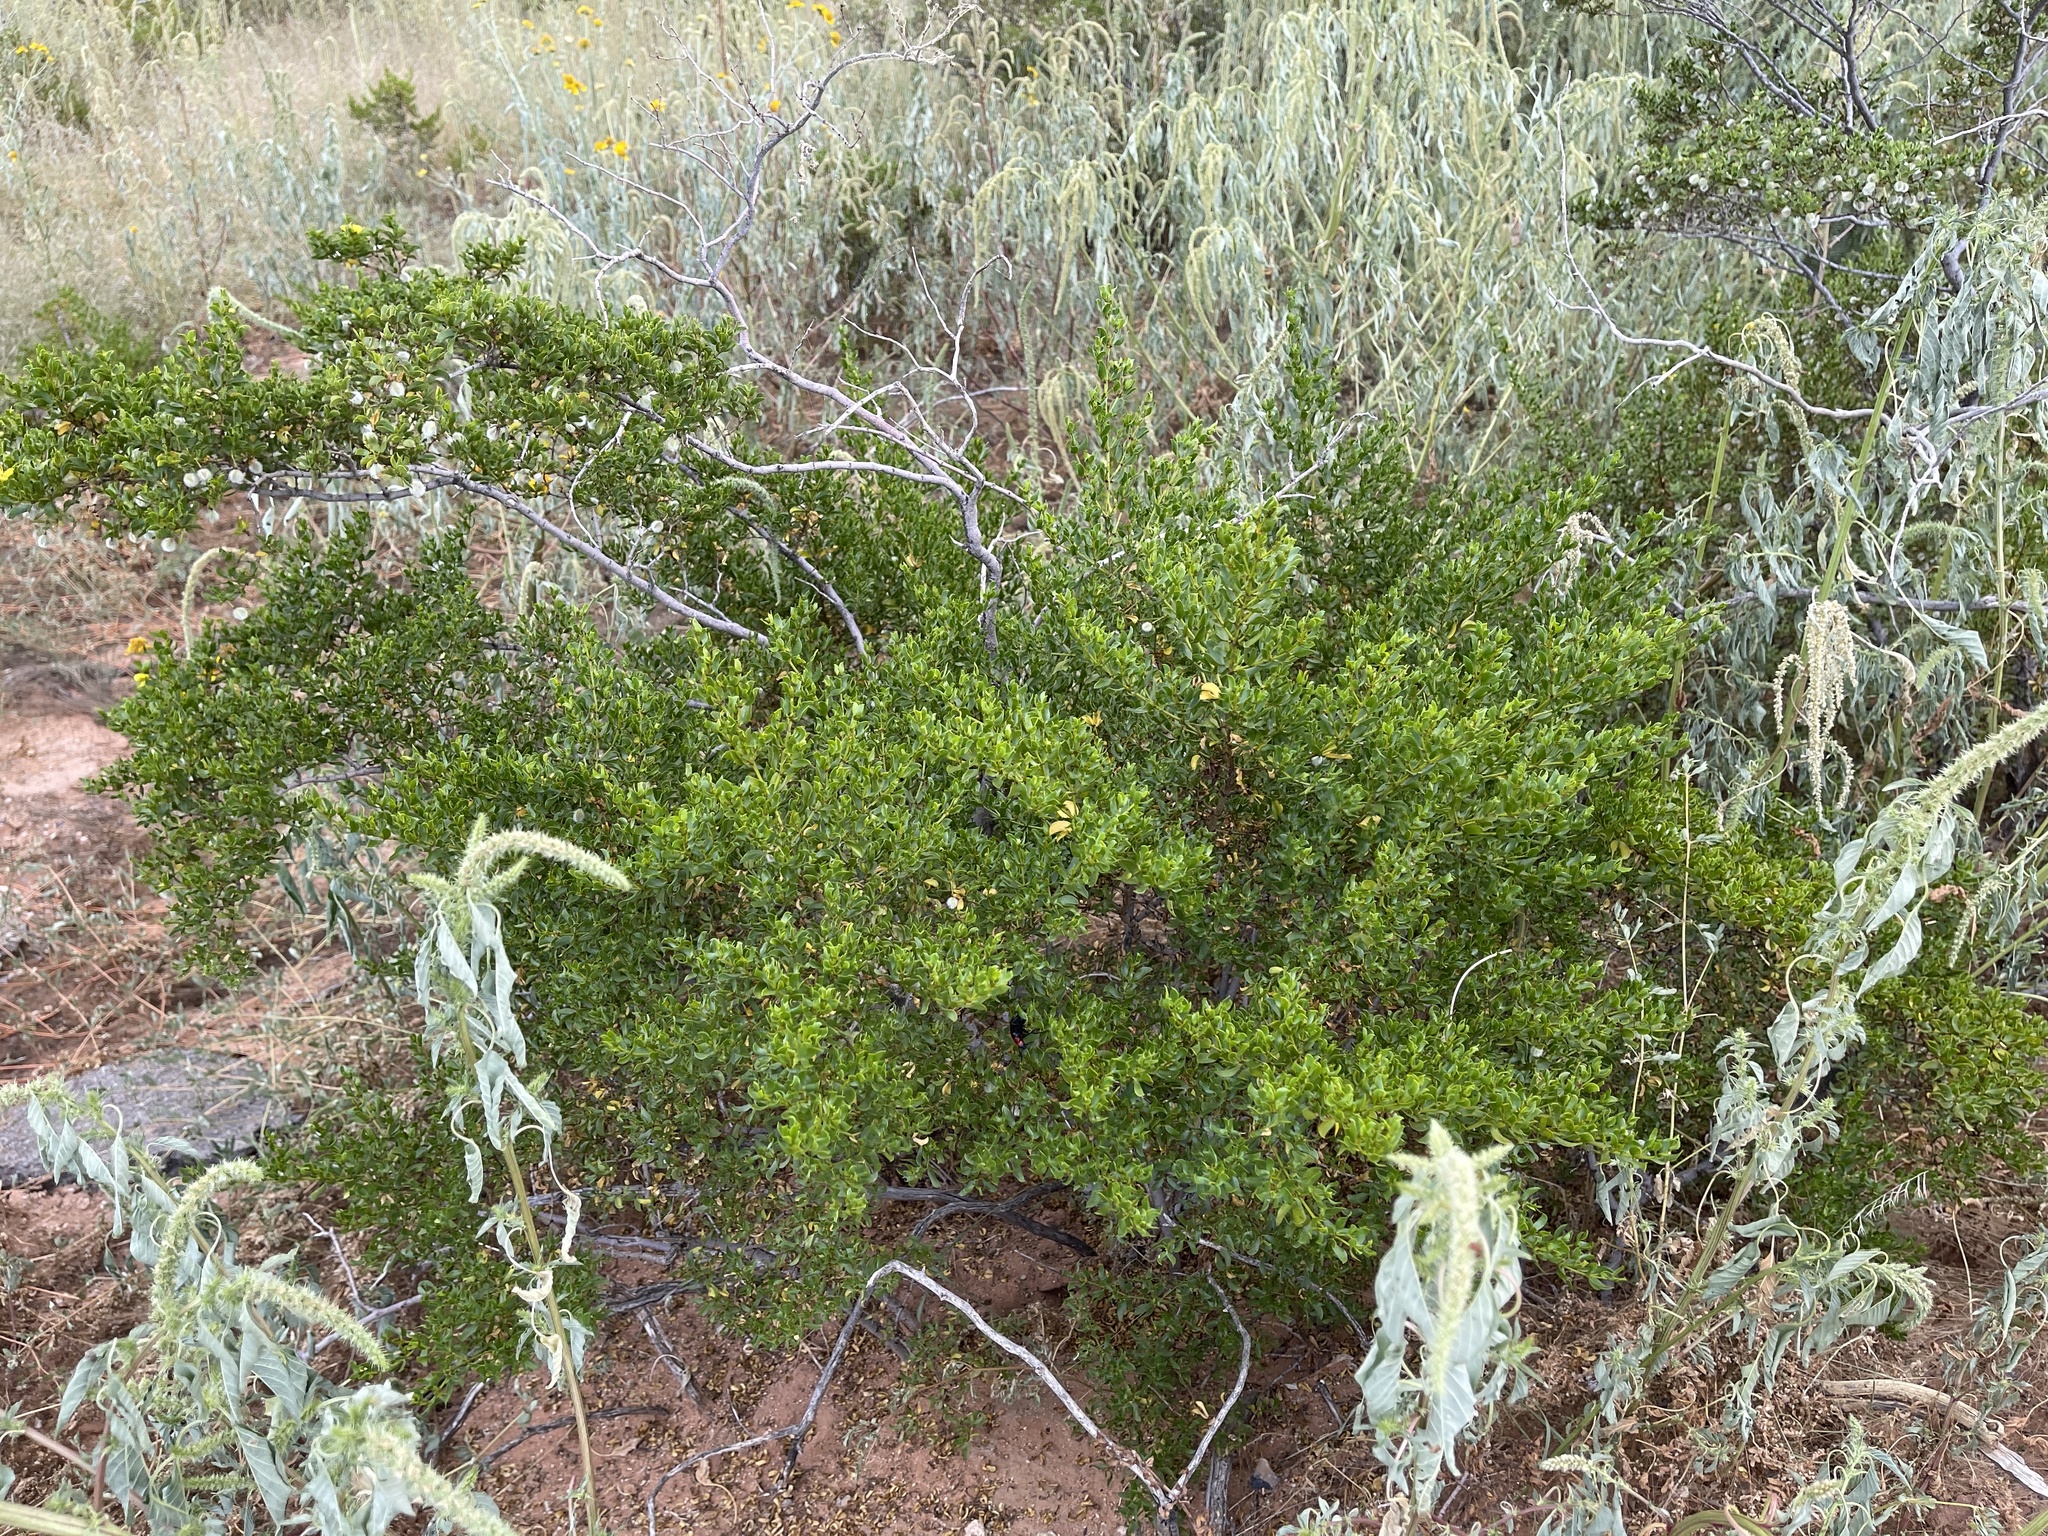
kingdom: Plantae
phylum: Tracheophyta
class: Magnoliopsida
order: Zygophyllales
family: Zygophyllaceae
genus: Larrea
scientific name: Larrea tridentata
